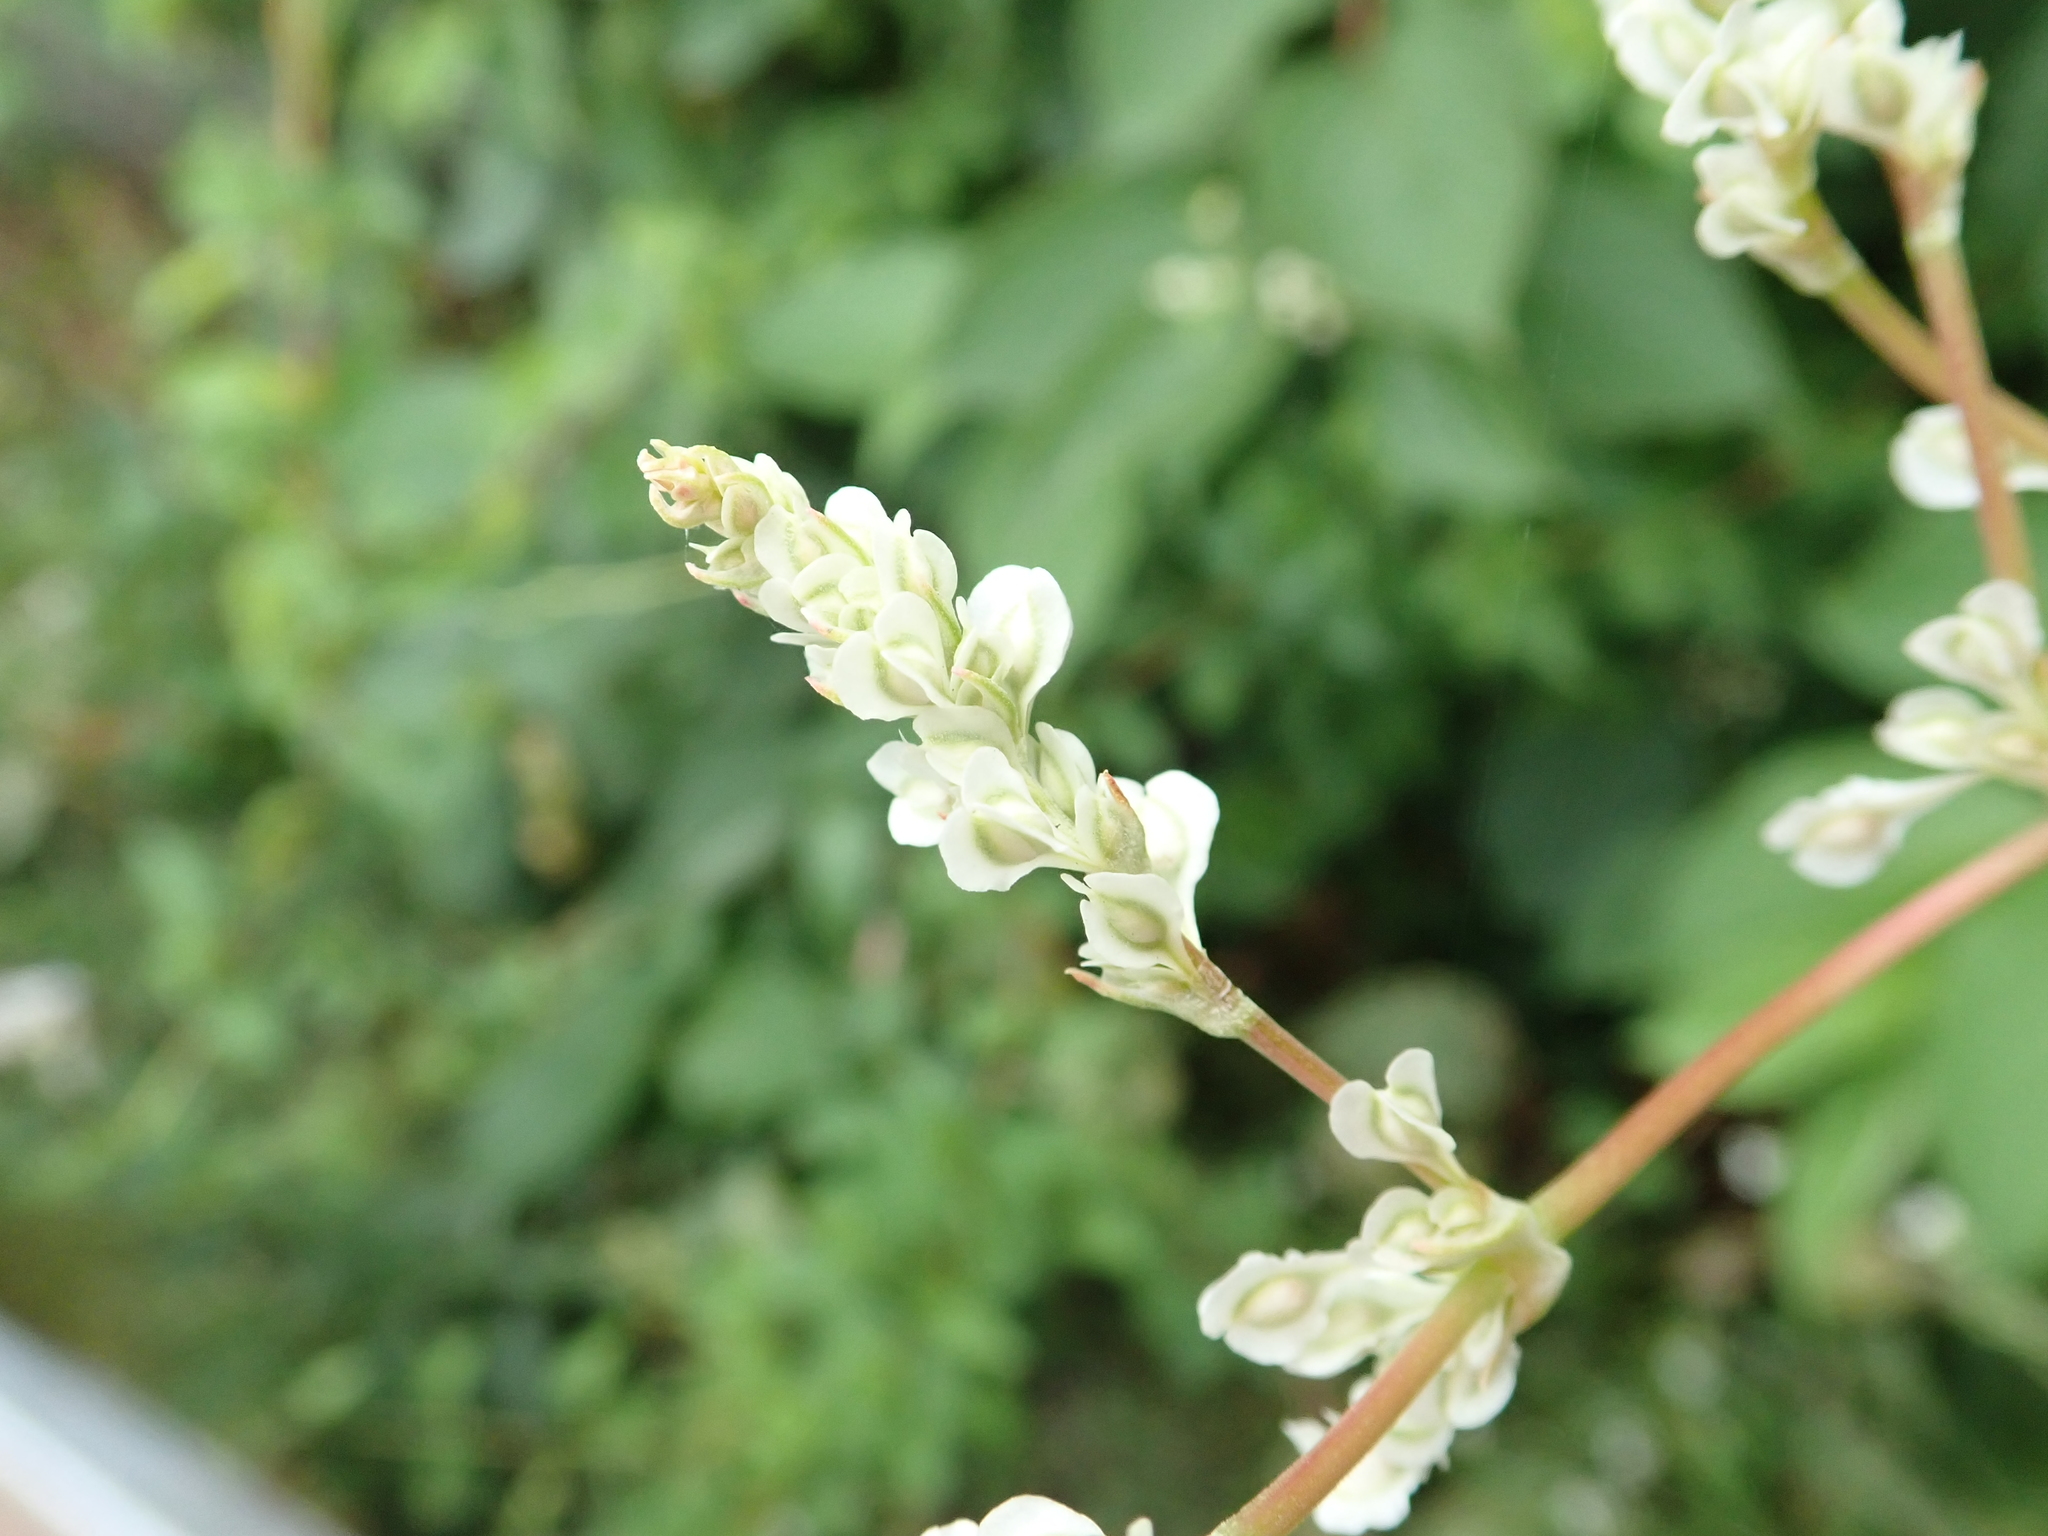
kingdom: Plantae
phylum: Tracheophyta
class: Magnoliopsida
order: Caryophyllales
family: Polygonaceae
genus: Fallopia
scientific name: Fallopia baldschuanica
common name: Russian-vine
